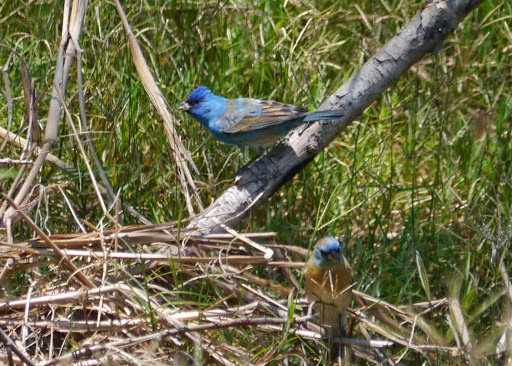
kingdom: Animalia
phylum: Chordata
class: Aves
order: Passeriformes
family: Cardinalidae
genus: Passerina
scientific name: Passerina amoena
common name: Lazuli bunting
